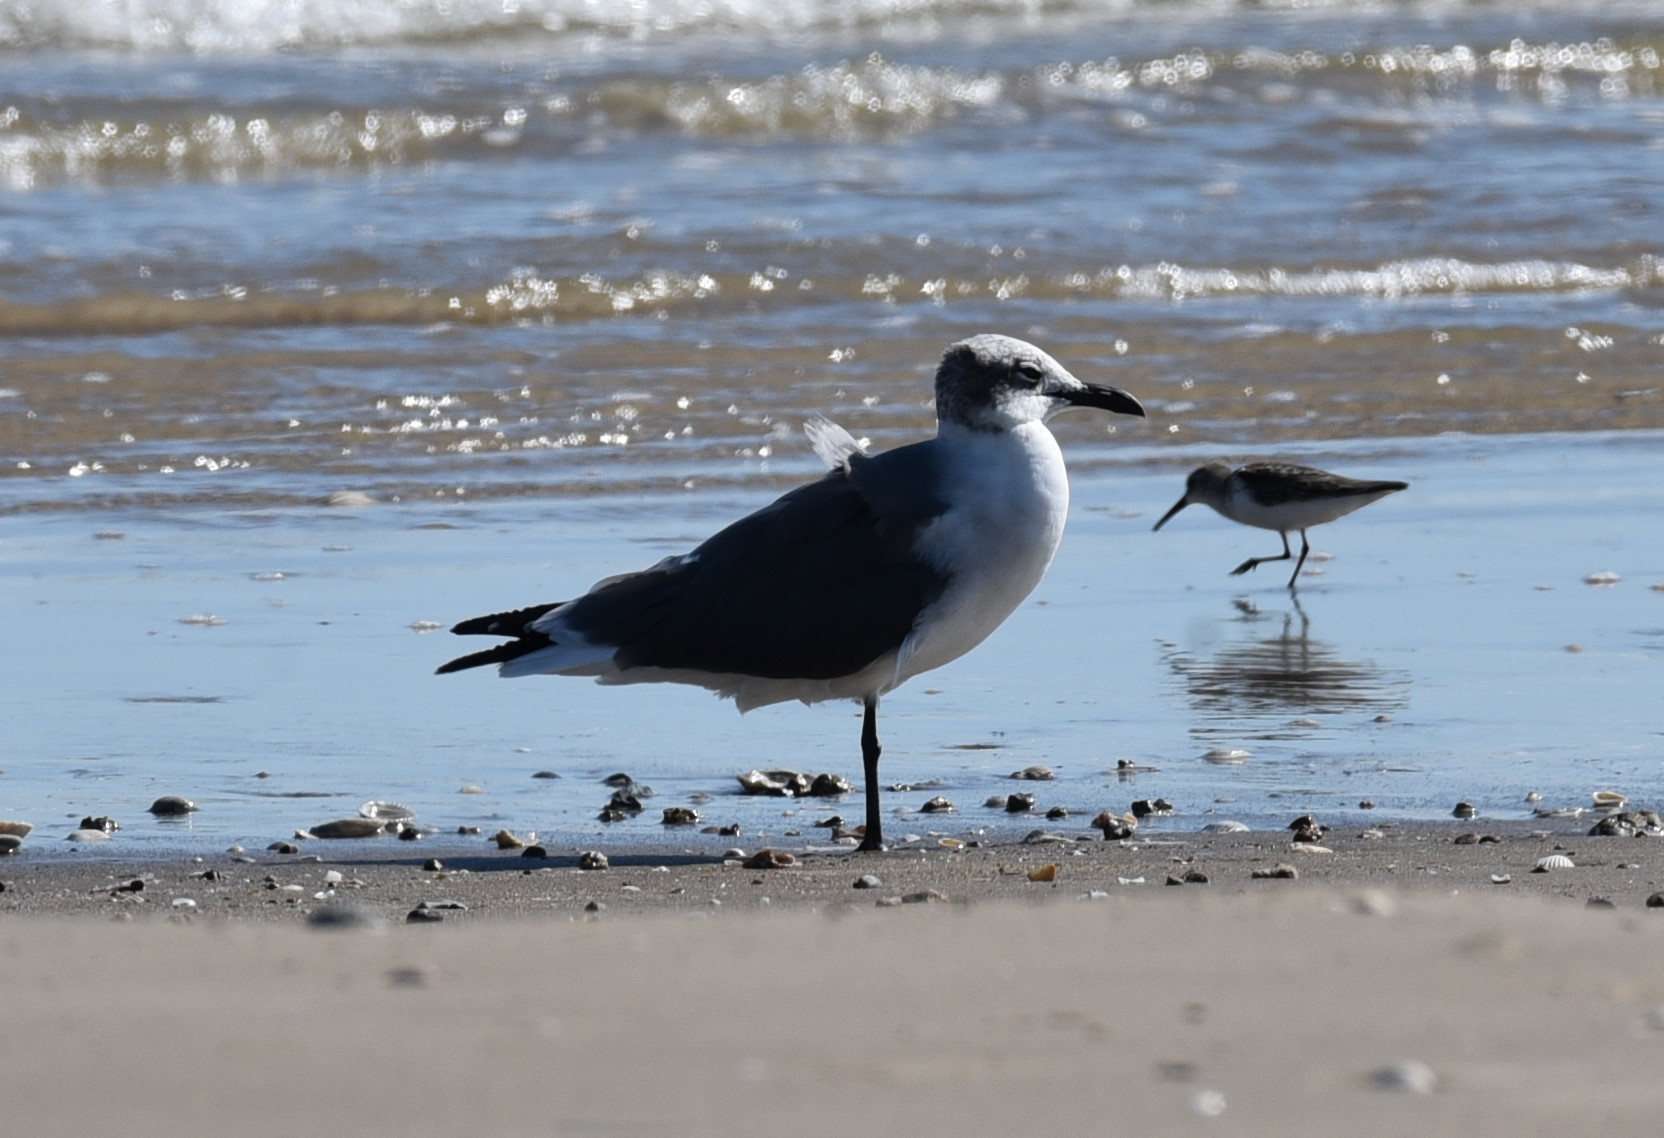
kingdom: Animalia
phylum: Chordata
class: Aves
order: Charadriiformes
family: Laridae
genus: Leucophaeus
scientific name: Leucophaeus atricilla
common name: Laughing gull
